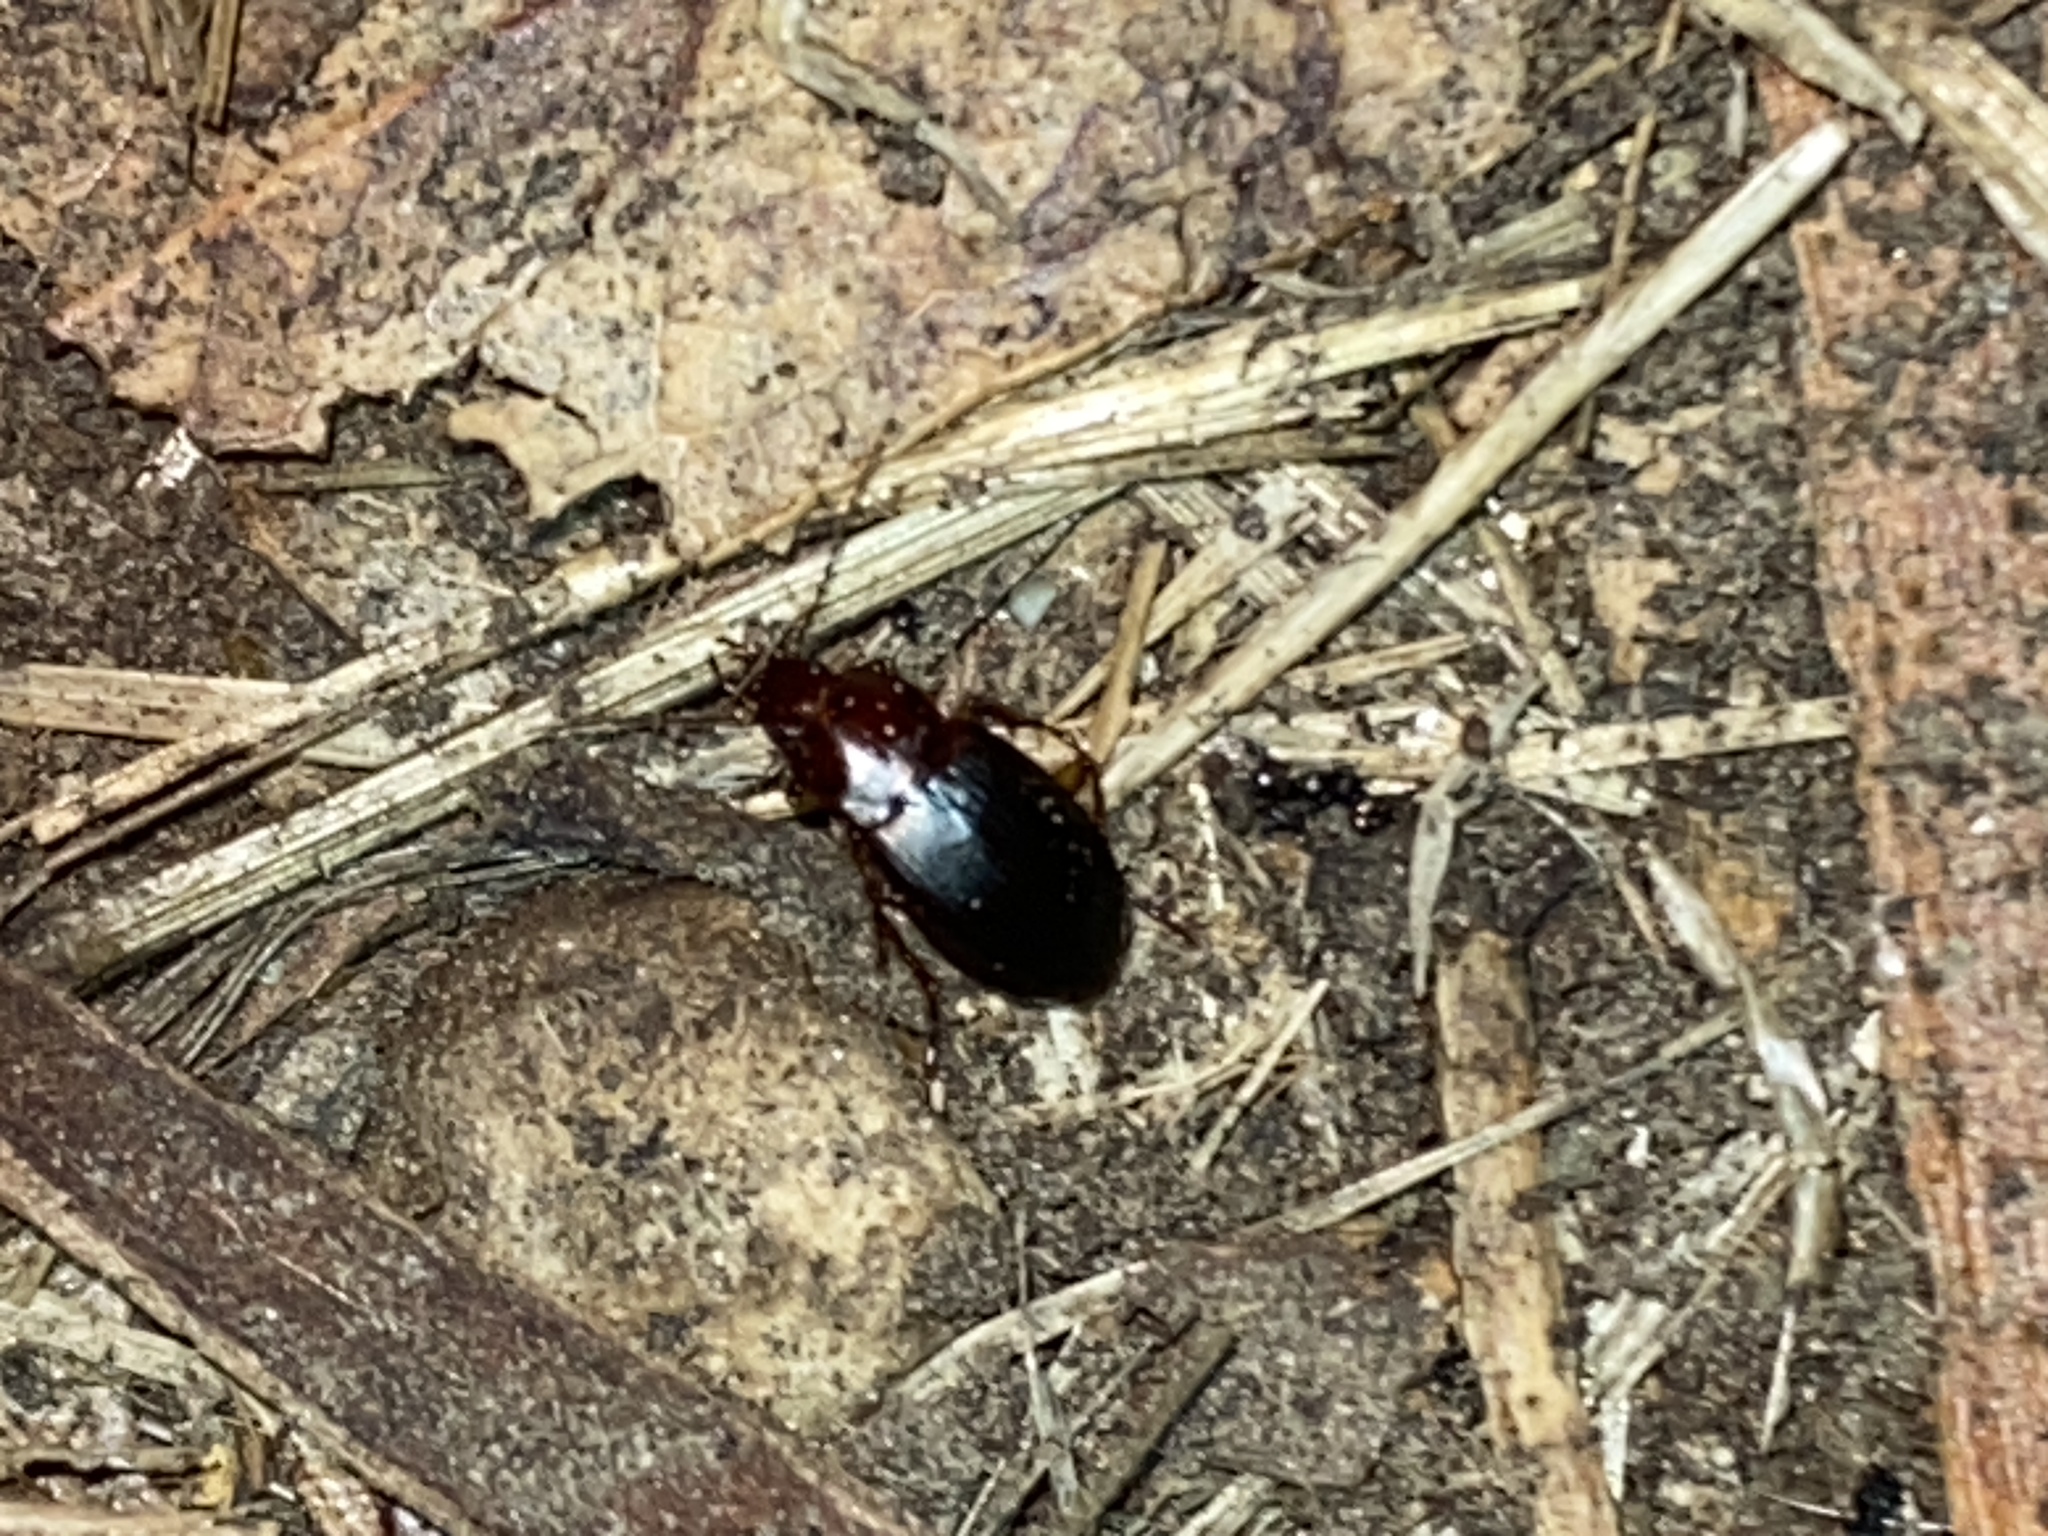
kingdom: Animalia
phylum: Arthropoda
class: Insecta
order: Coleoptera
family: Carabidae
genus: Calathus
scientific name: Calathus ruficollis
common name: Red-collared harp ground beetle
